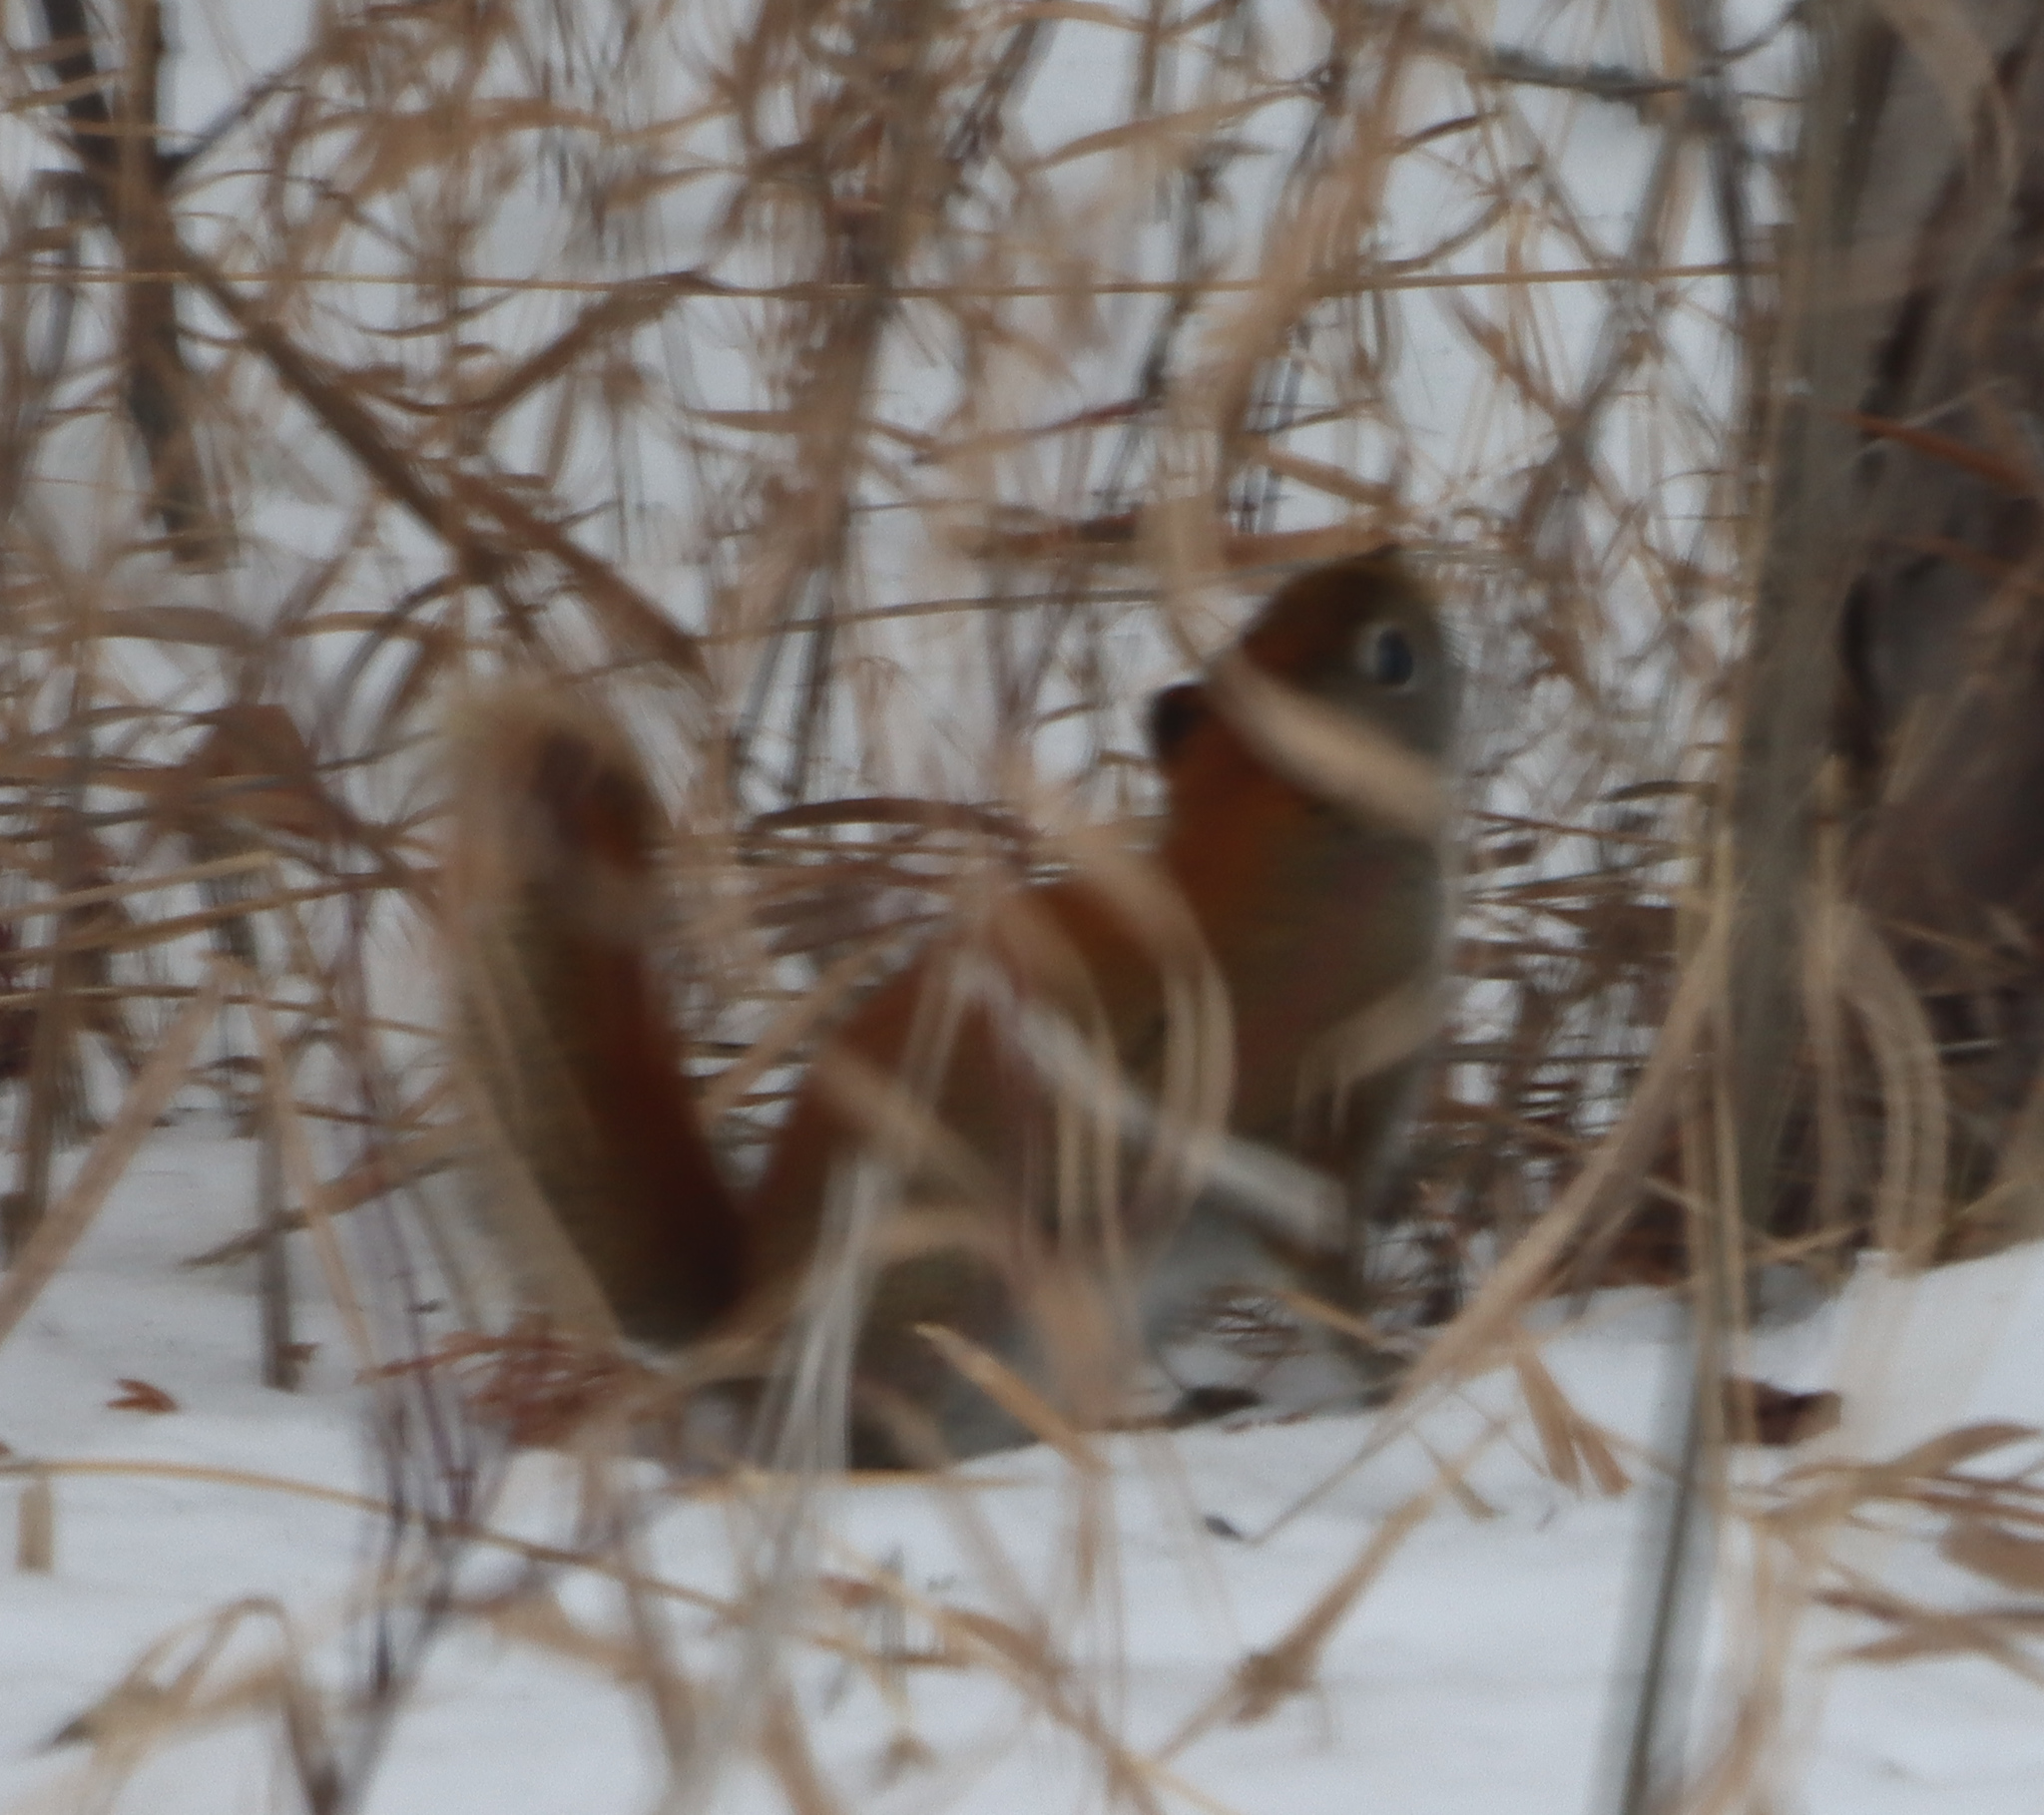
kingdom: Animalia
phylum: Chordata
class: Mammalia
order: Rodentia
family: Sciuridae
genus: Tamiasciurus
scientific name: Tamiasciurus hudsonicus
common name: Red squirrel
